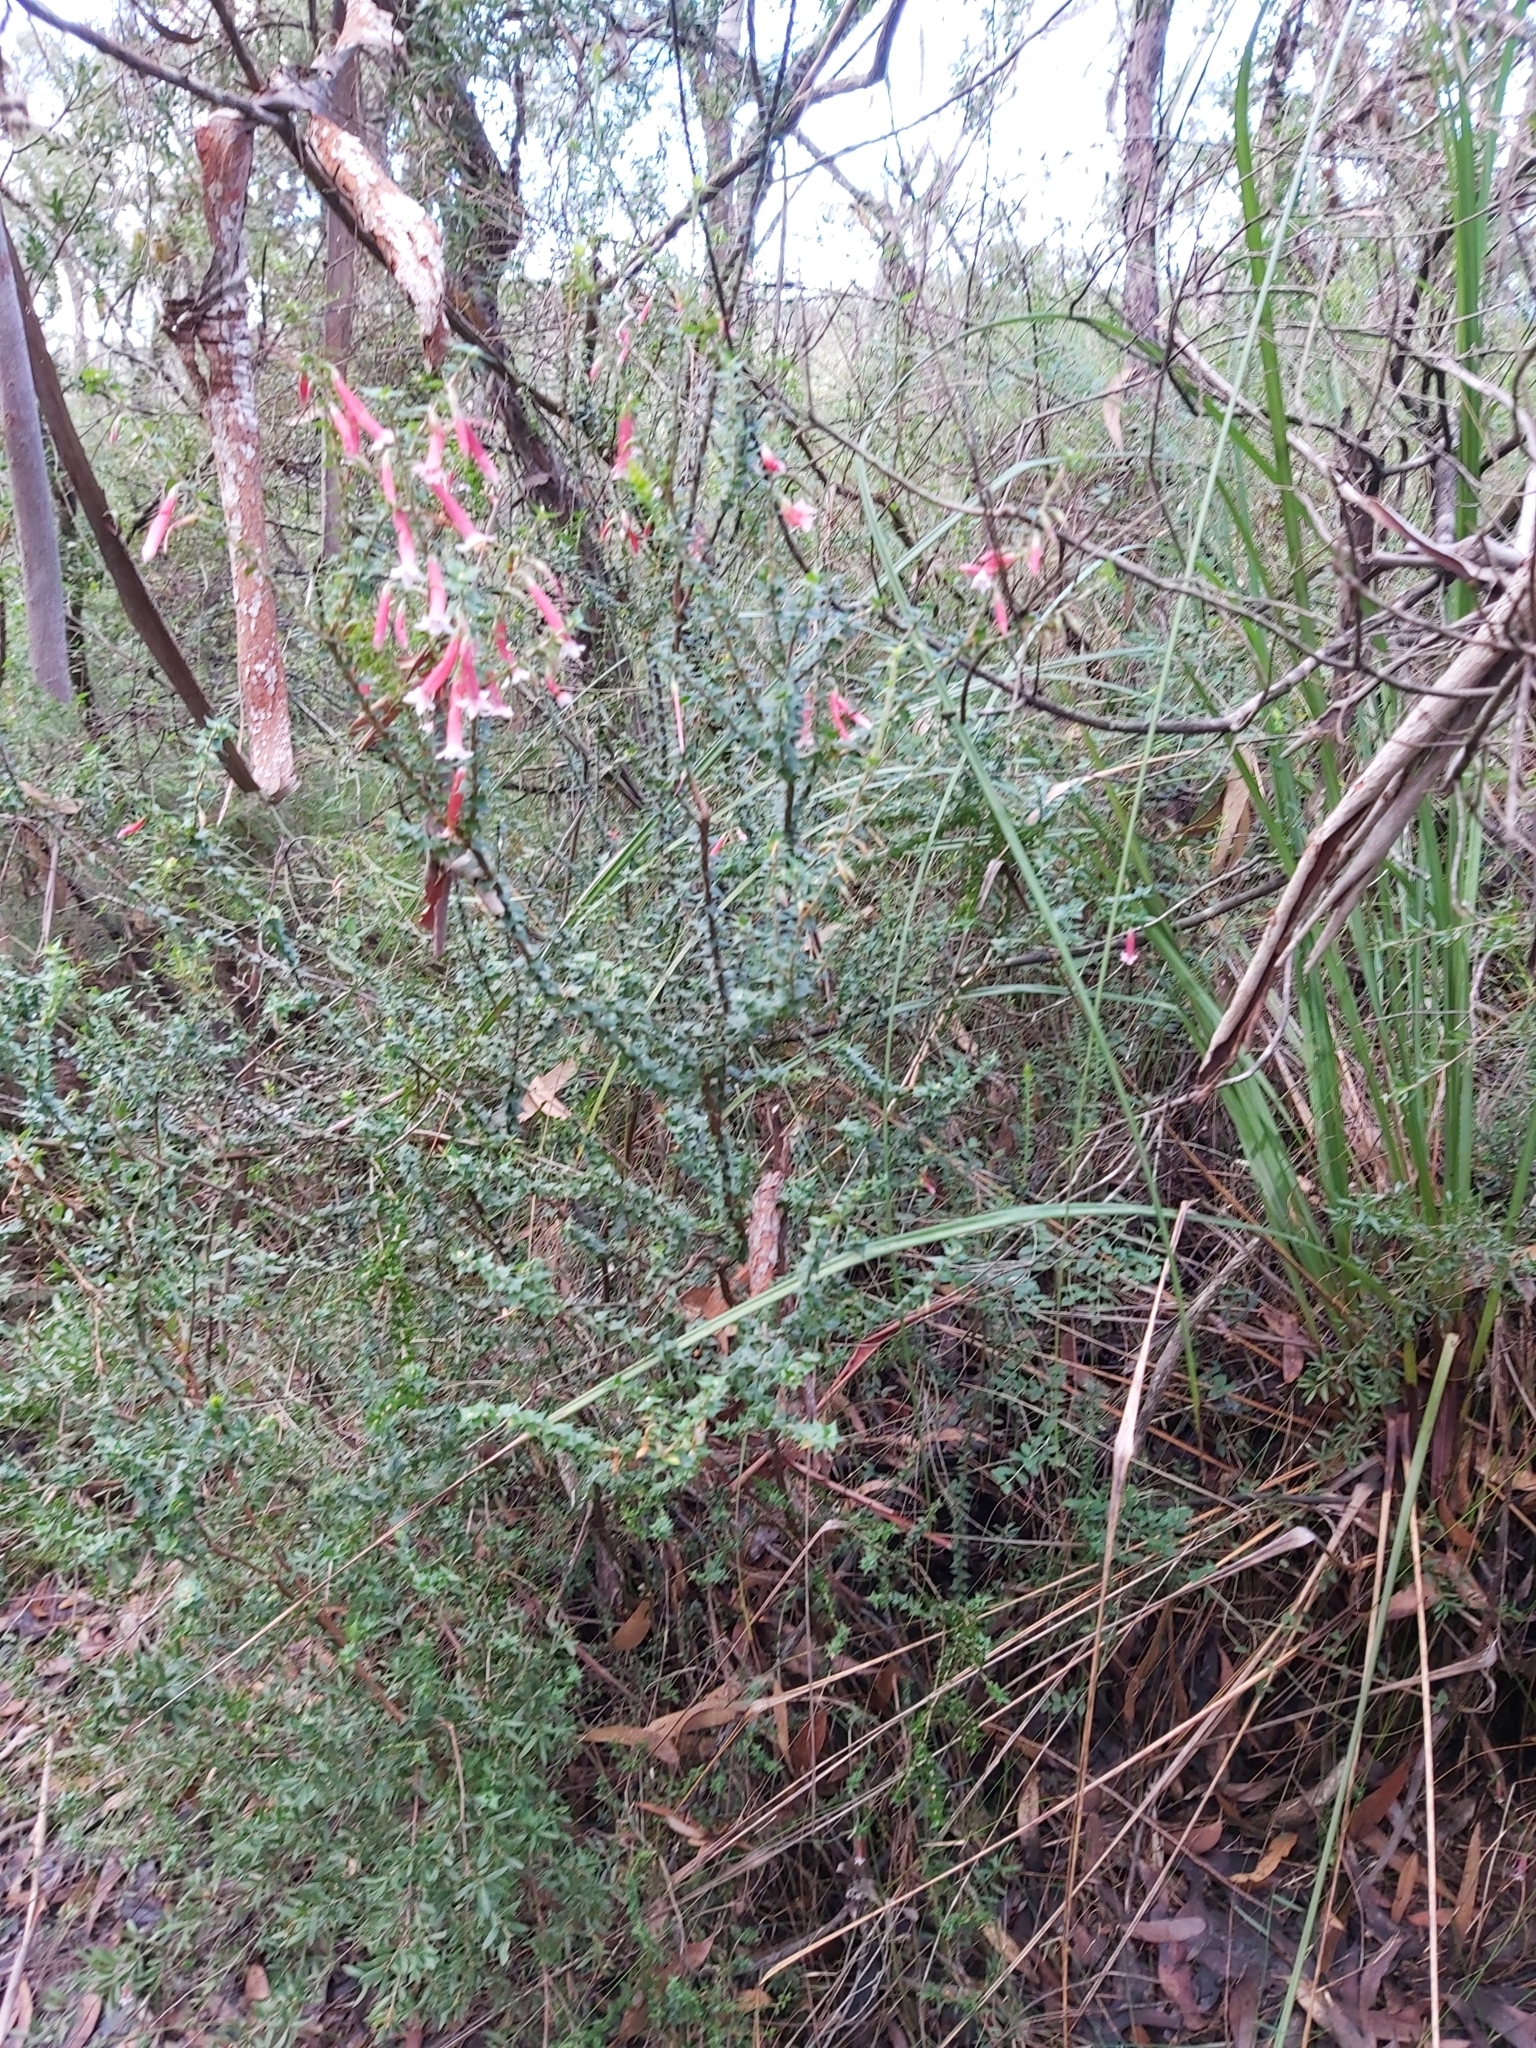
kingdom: Plantae
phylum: Tracheophyta
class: Magnoliopsida
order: Ericales
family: Ericaceae
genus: Epacris
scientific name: Epacris longiflora
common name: Fuchsia-heath
